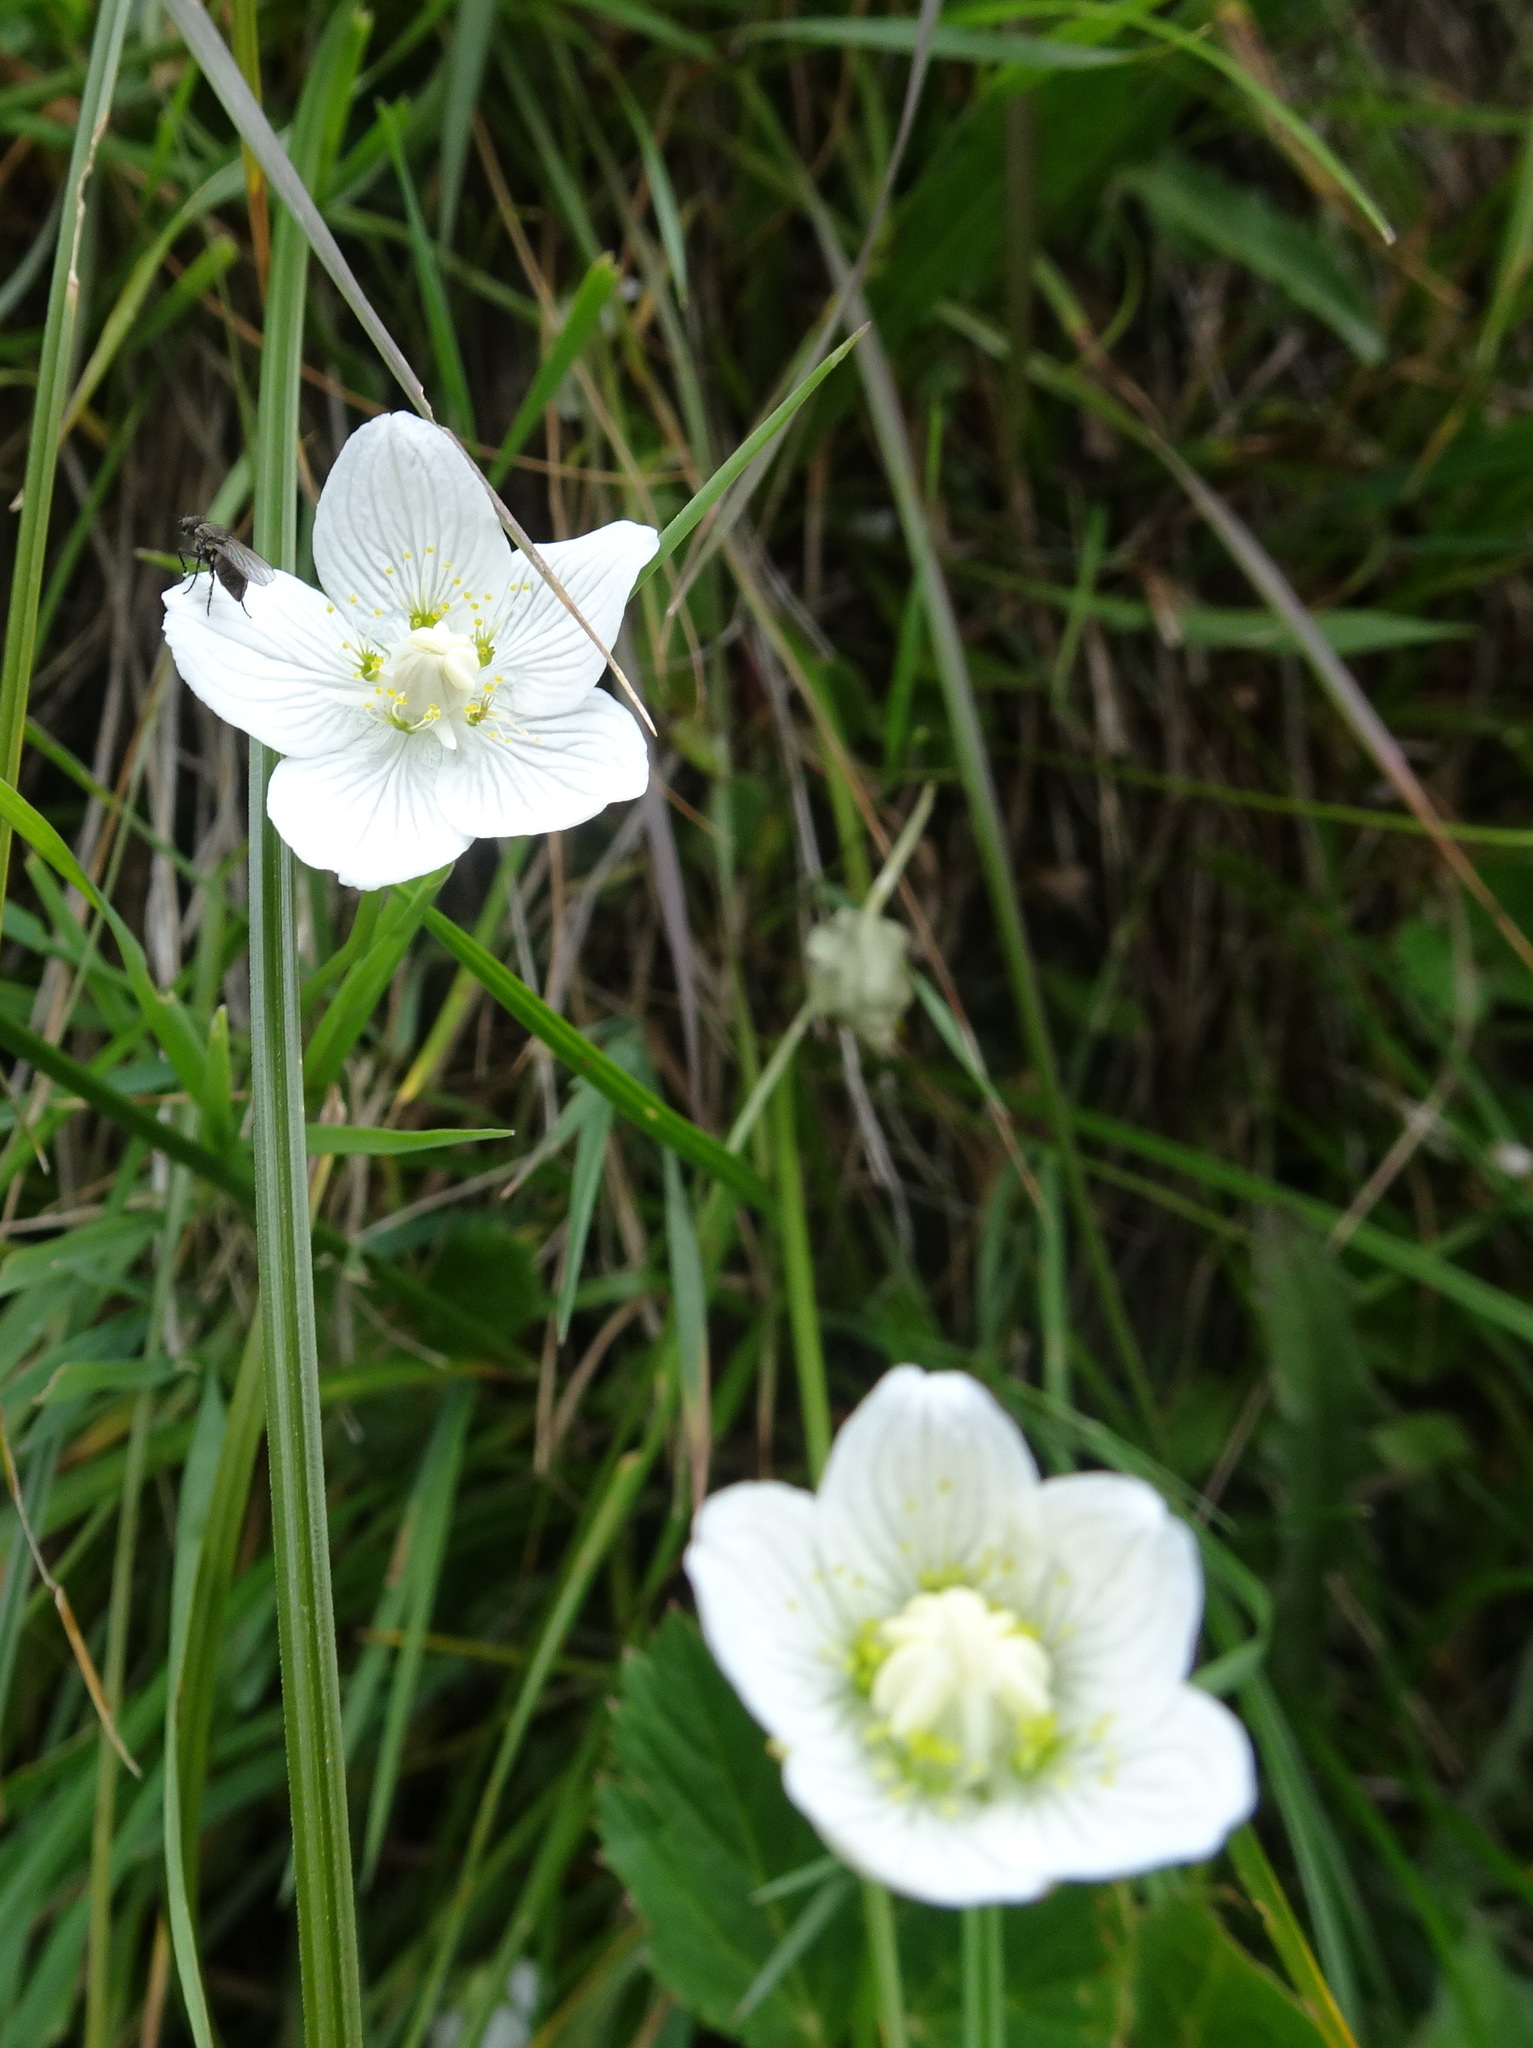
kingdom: Plantae
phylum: Tracheophyta
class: Magnoliopsida
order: Celastrales
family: Parnassiaceae
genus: Parnassia
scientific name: Parnassia palustris
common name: Grass-of-parnassus
